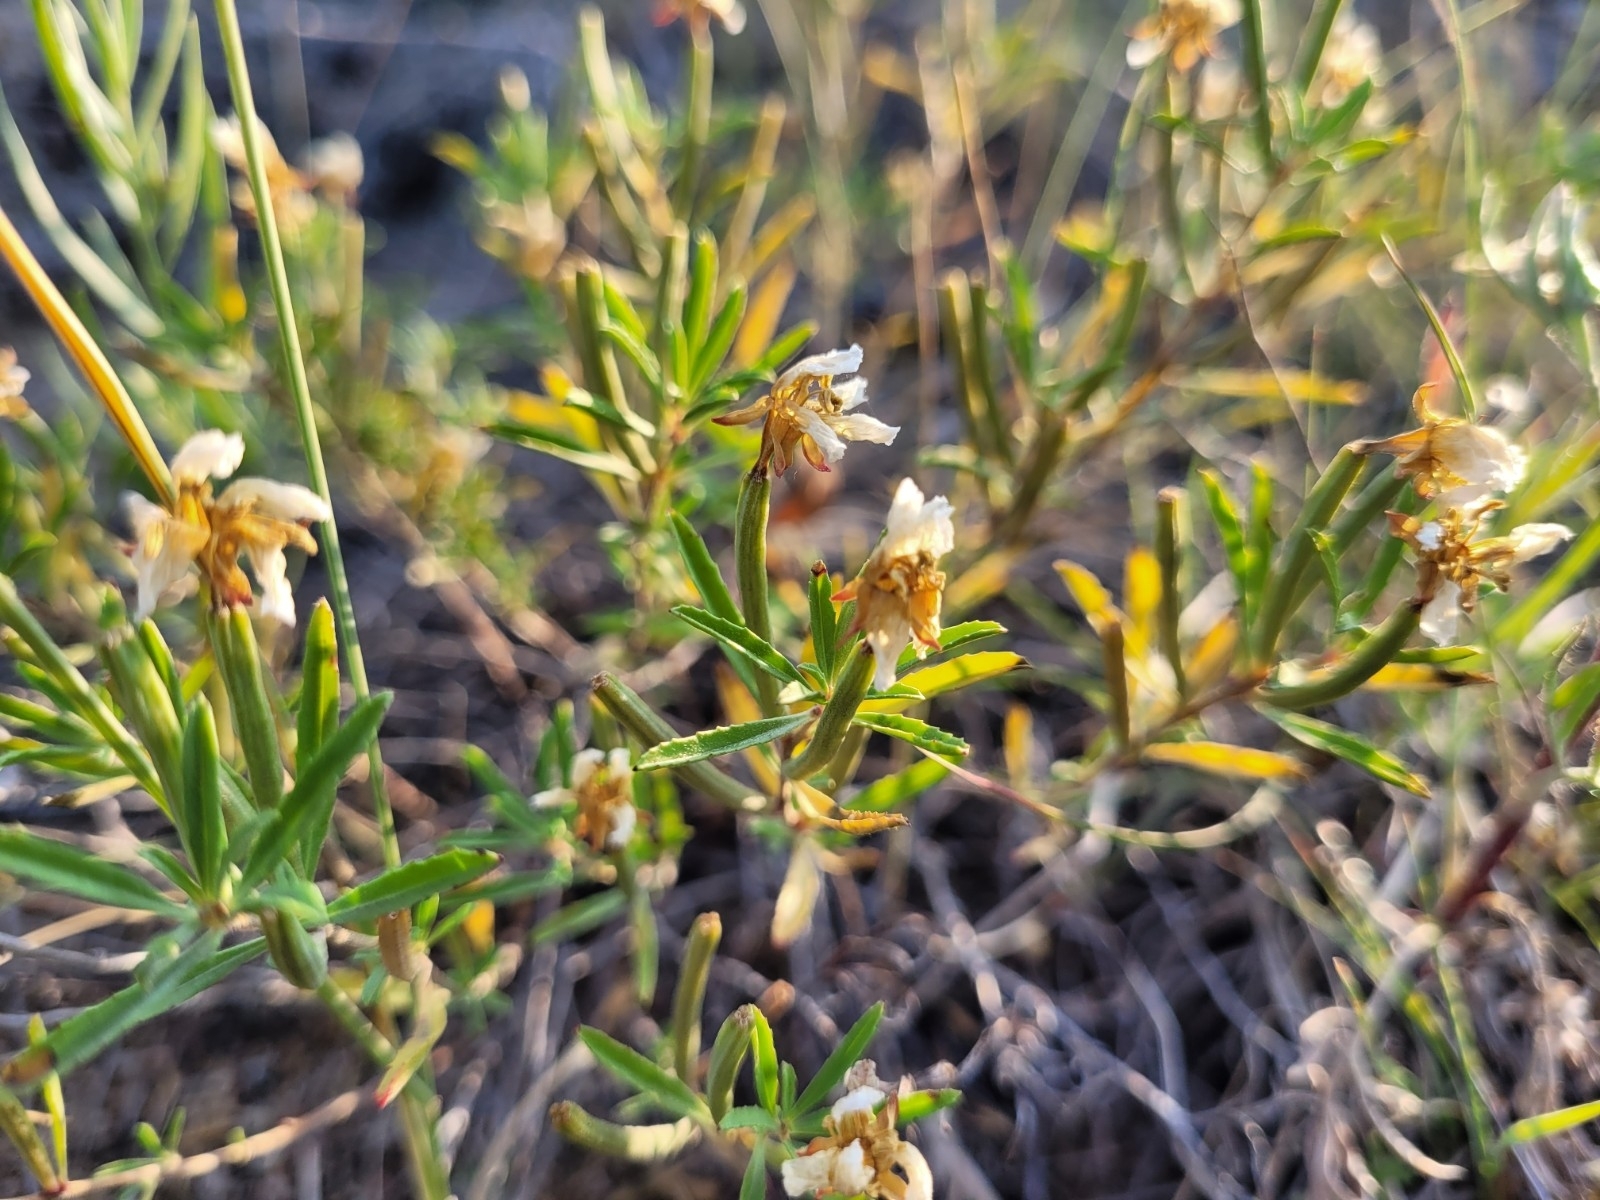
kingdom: Plantae
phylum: Tracheophyta
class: Magnoliopsida
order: Myrtales
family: Onagraceae
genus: Oenothera
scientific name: Oenothera serrulata
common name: Half-shrub calylophus
